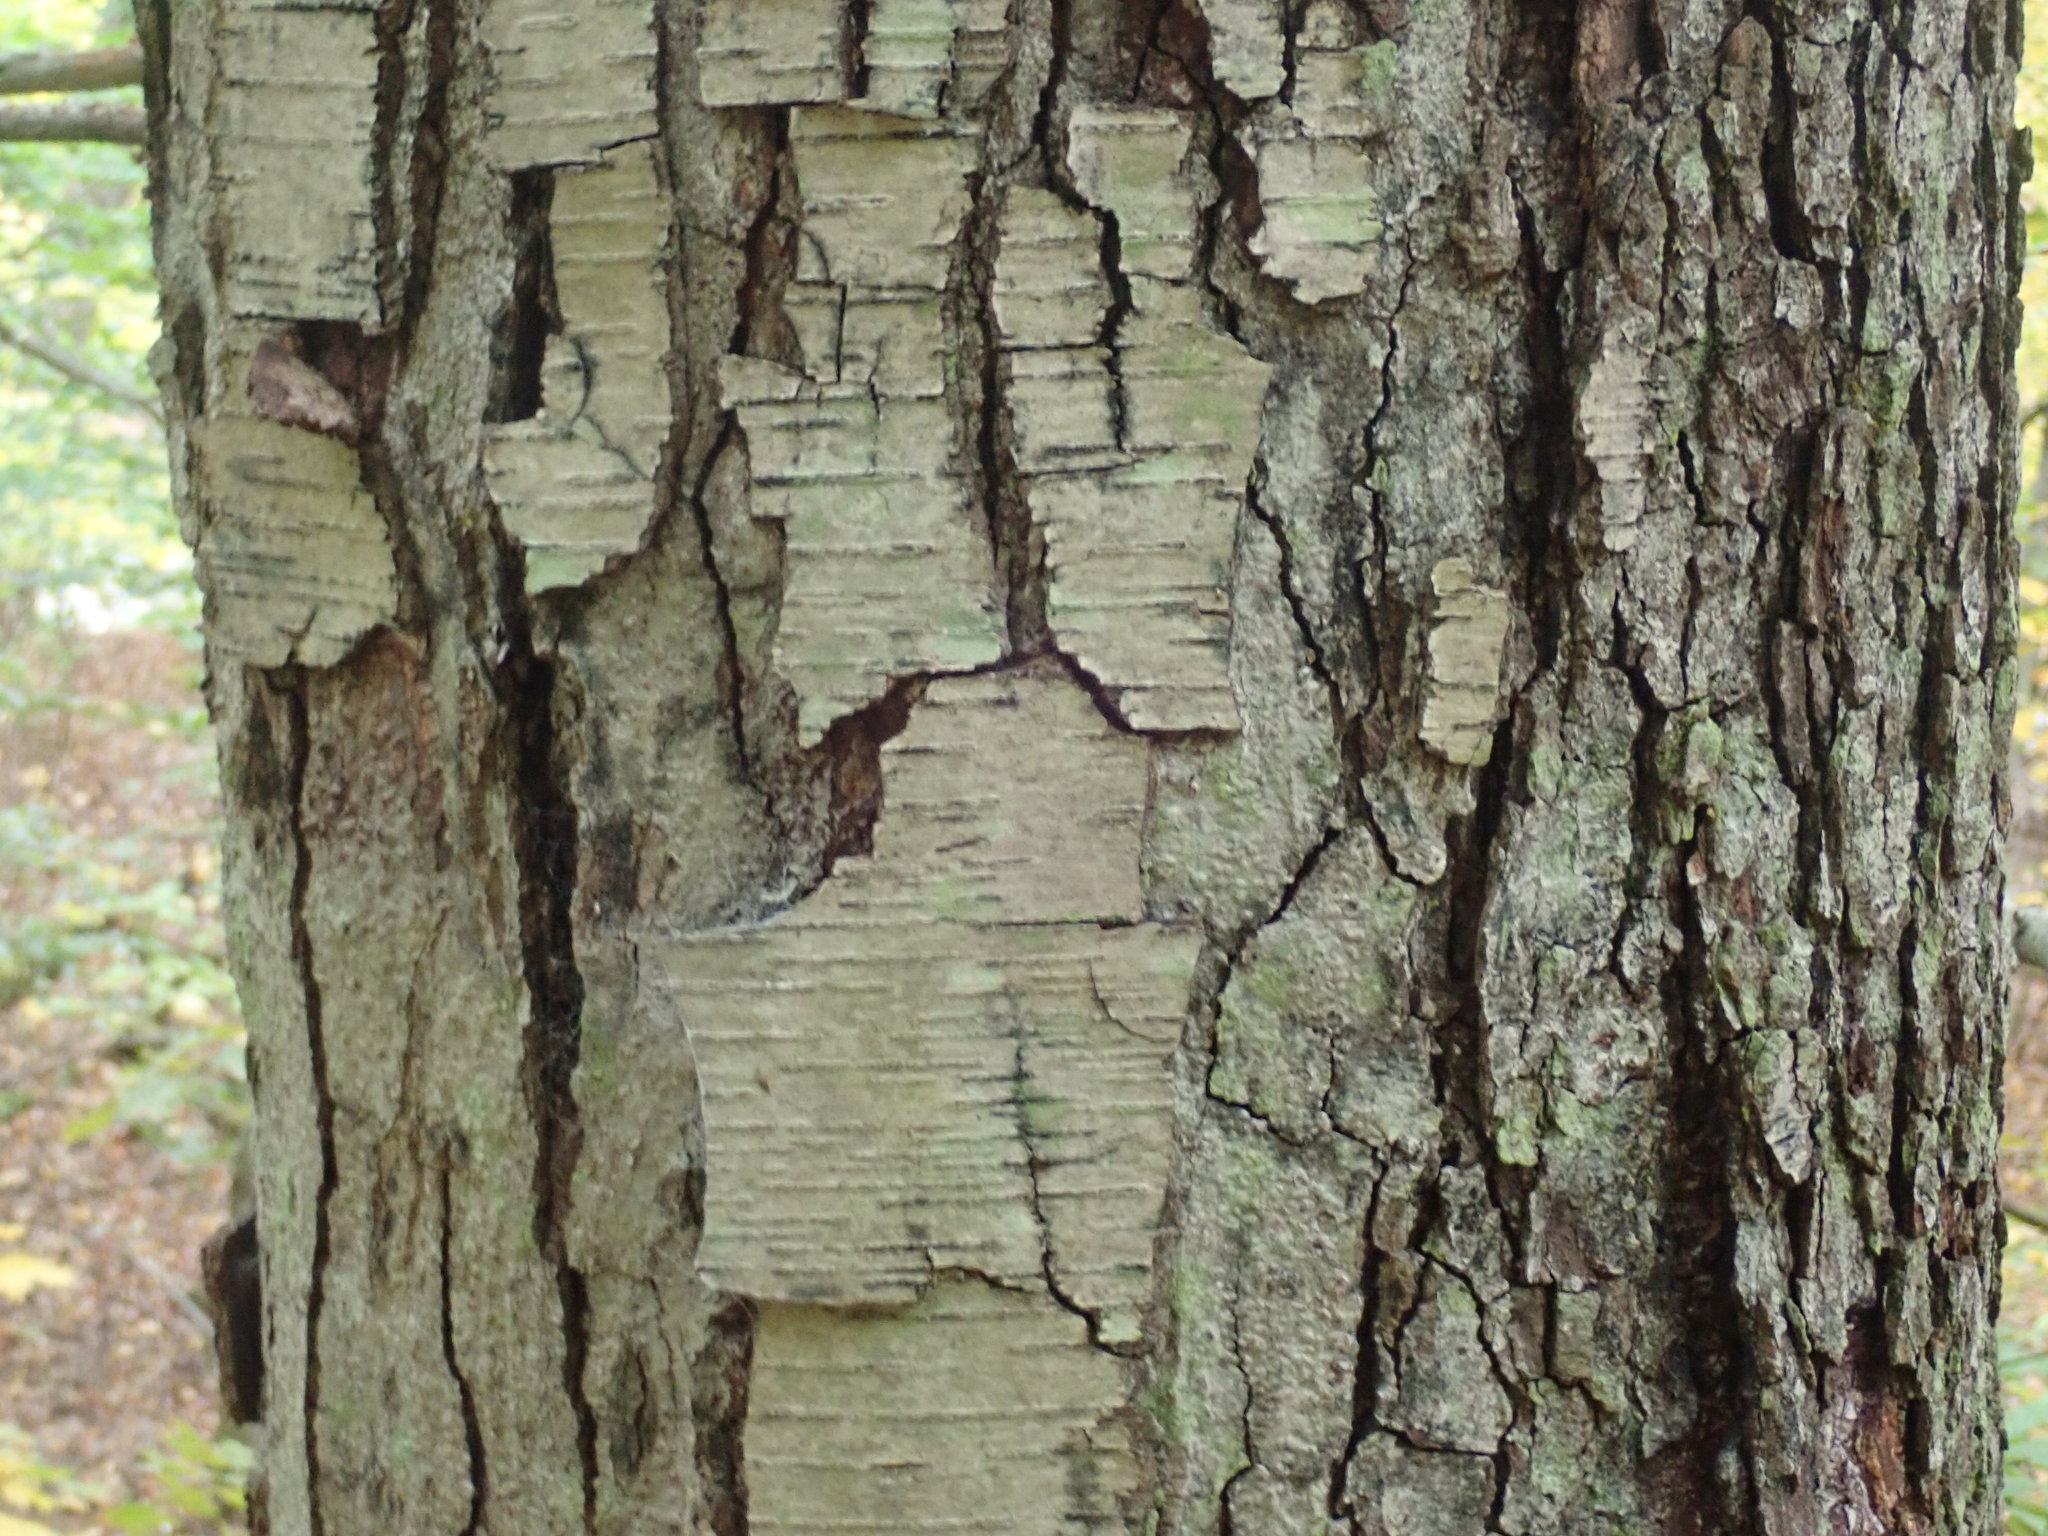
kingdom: Plantae
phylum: Tracheophyta
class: Magnoliopsida
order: Fagales
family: Betulaceae
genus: Betula
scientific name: Betula lenta
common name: Black birch
